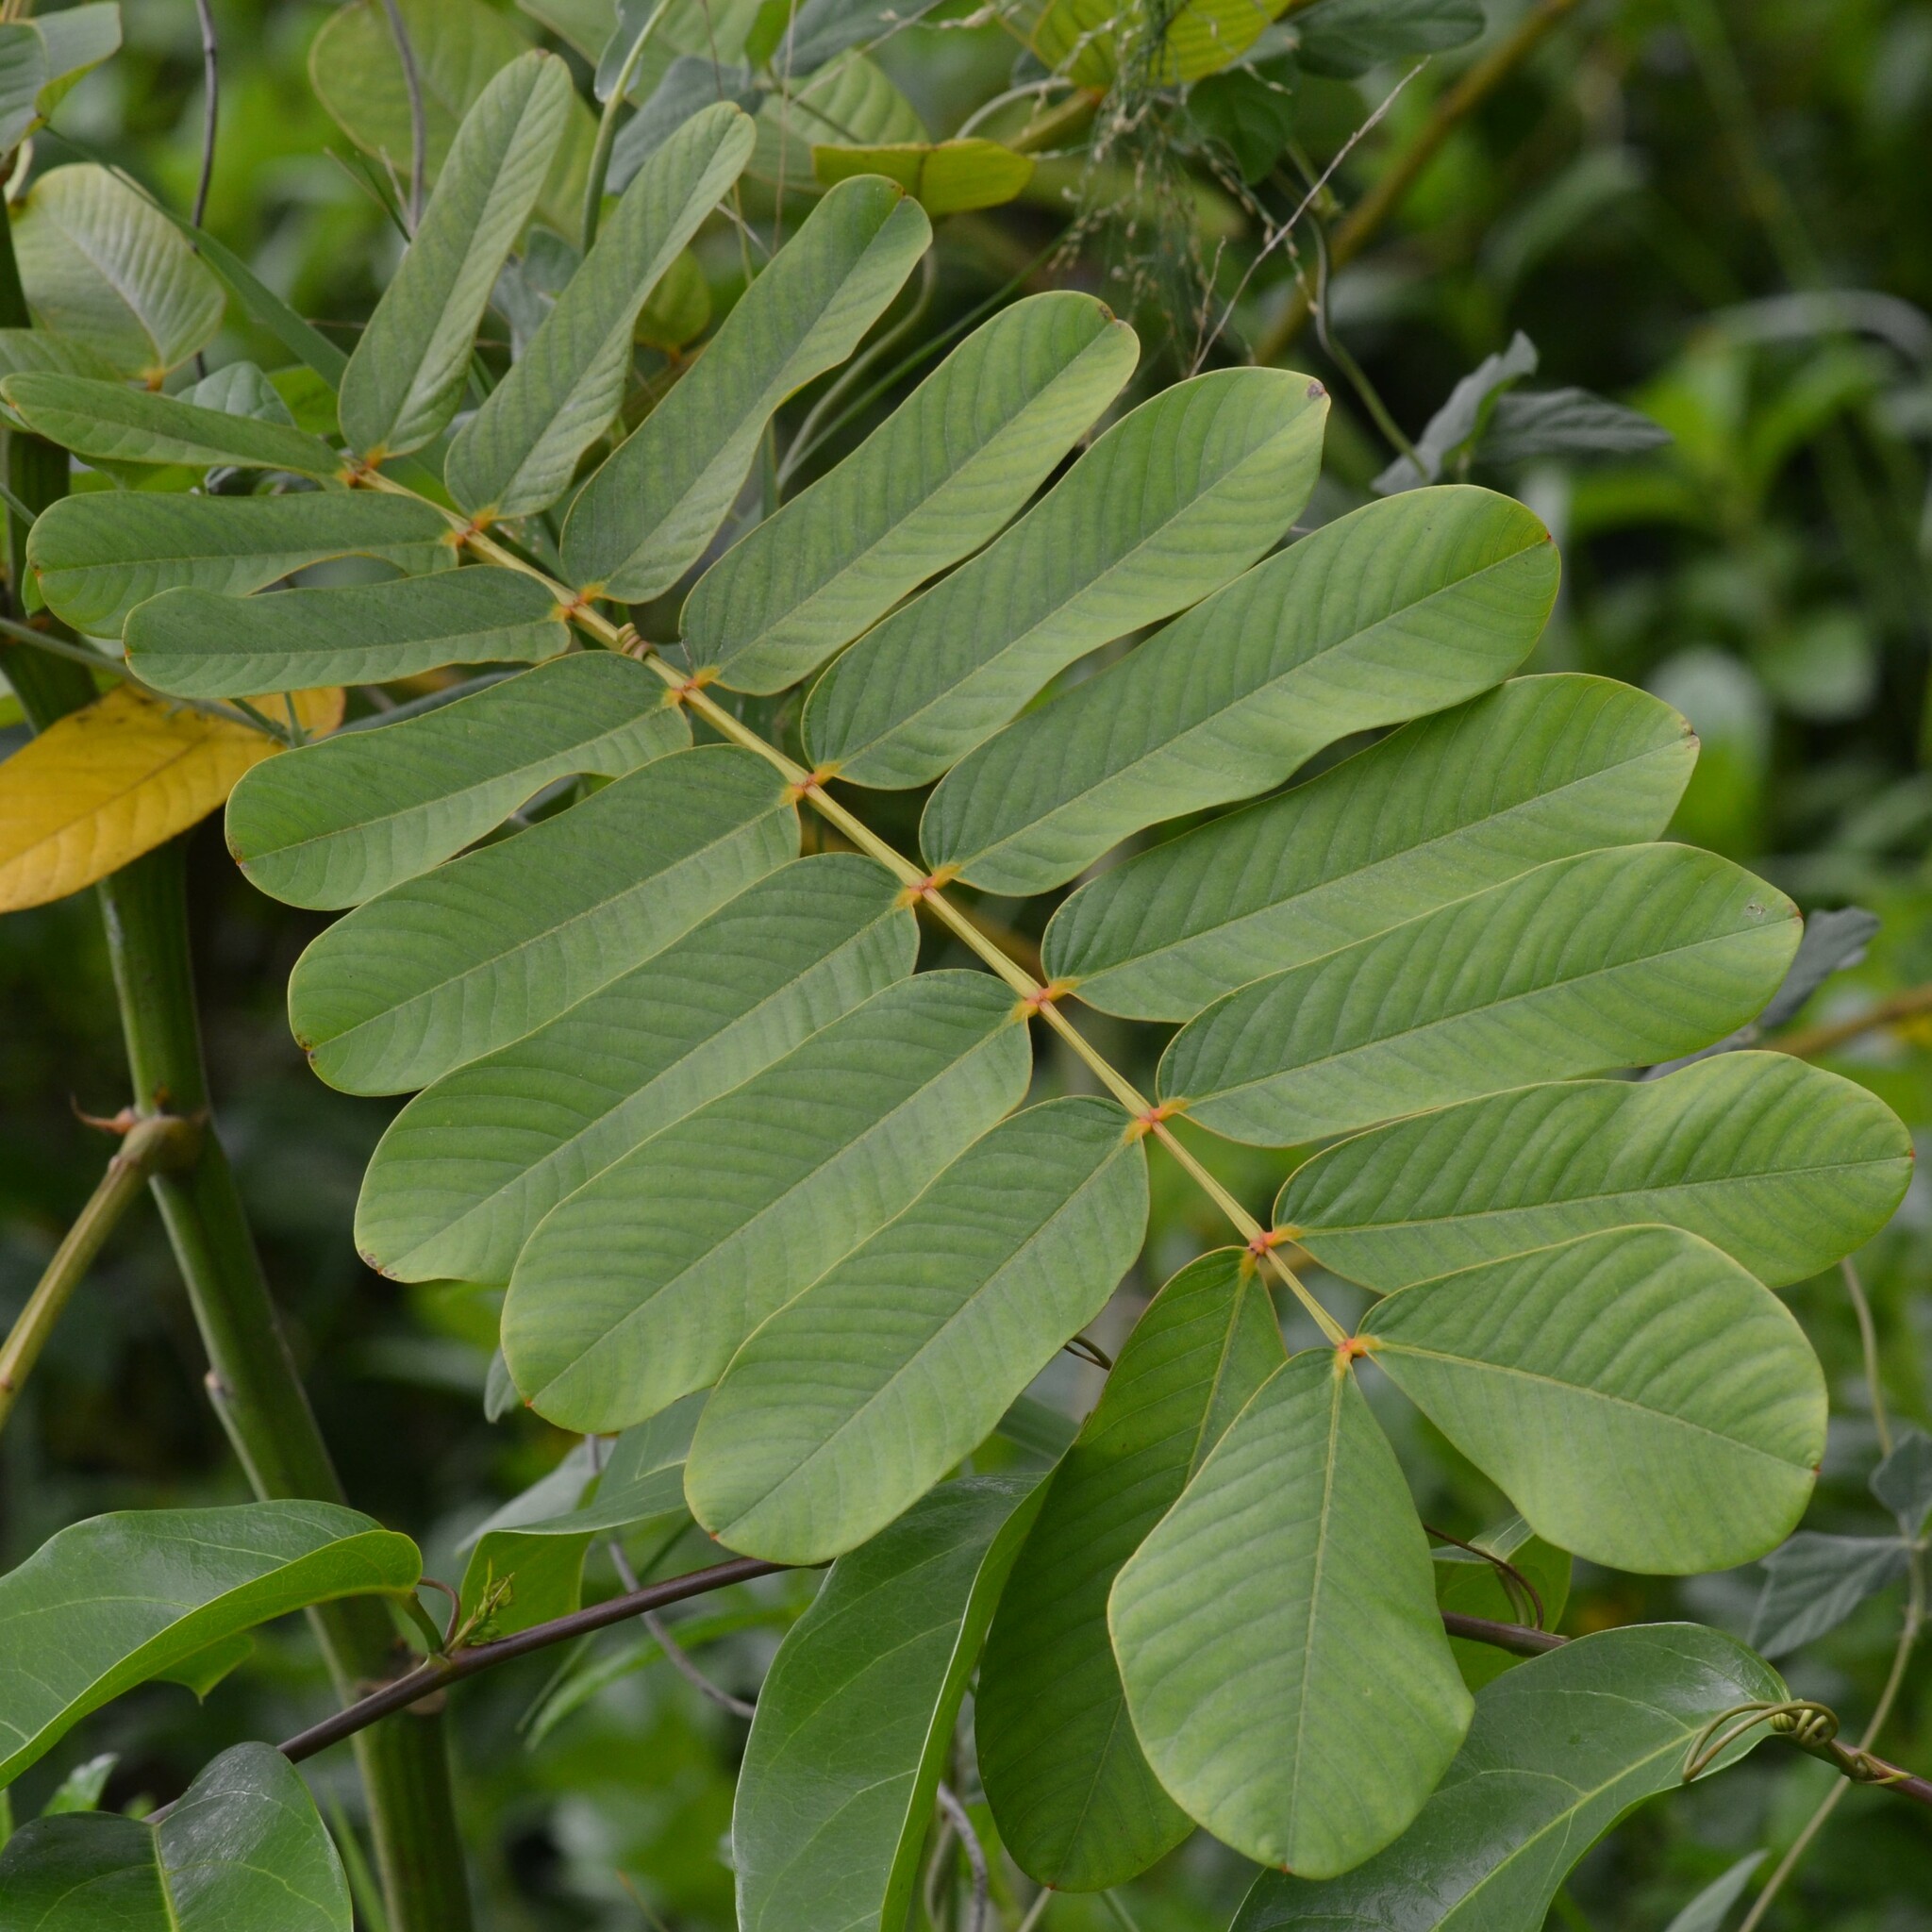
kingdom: Plantae
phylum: Tracheophyta
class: Magnoliopsida
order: Fabales
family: Fabaceae
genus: Senna
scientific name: Senna alata
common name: Emperor's candlesticks
